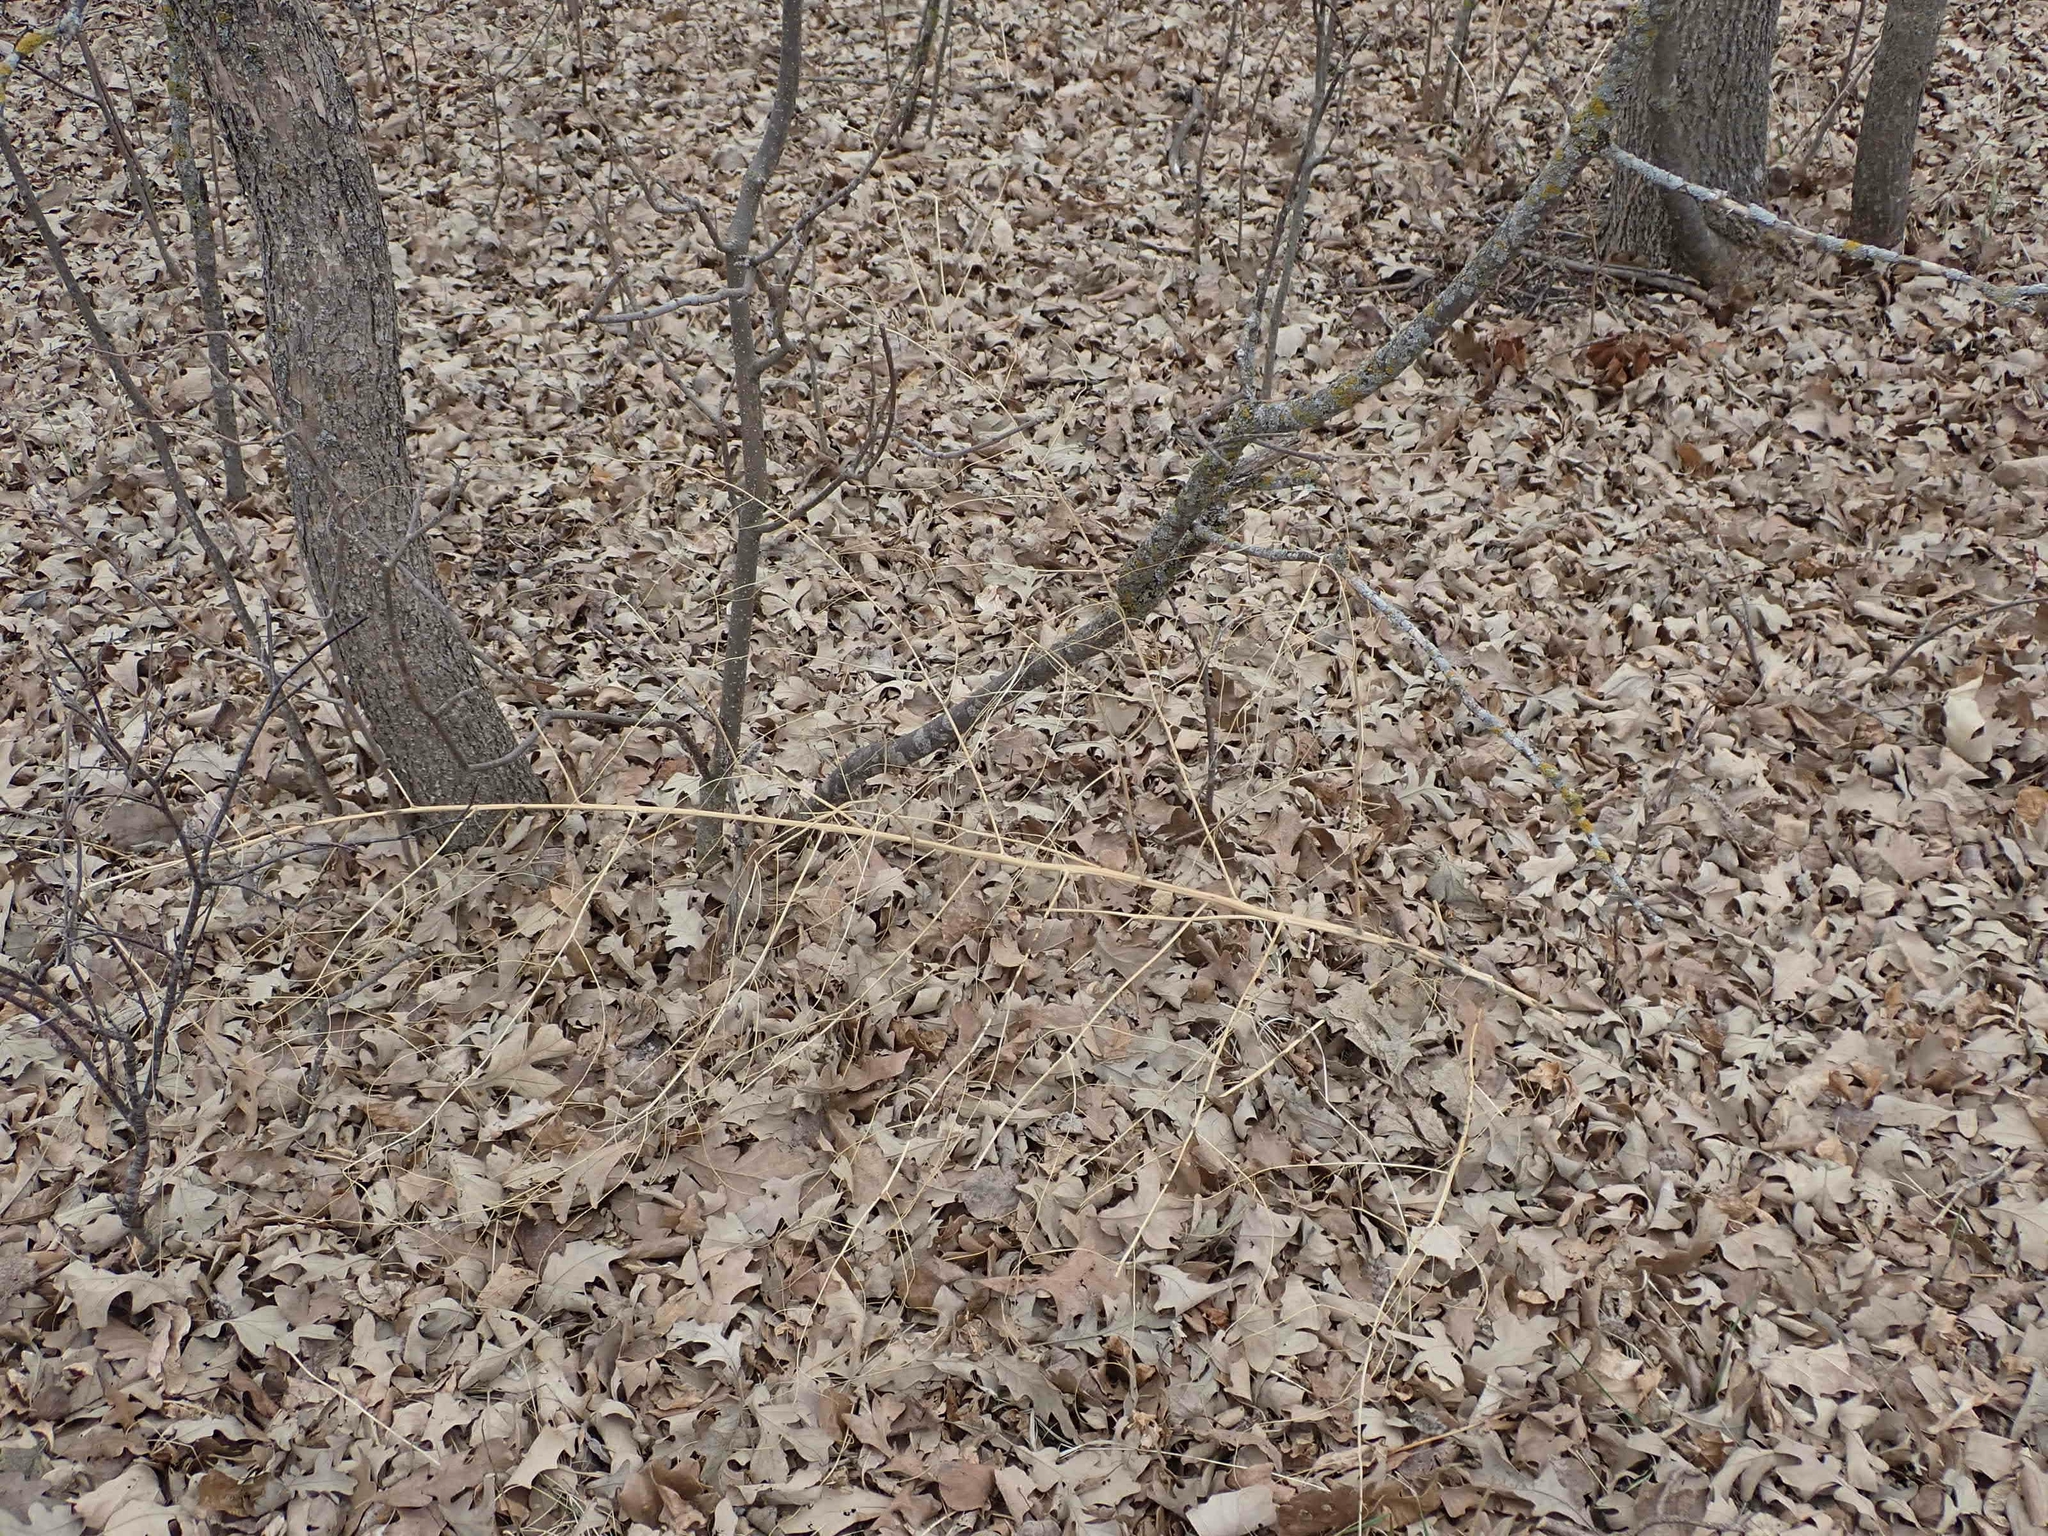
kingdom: Plantae
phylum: Tracheophyta
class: Liliopsida
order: Asparagales
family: Asparagaceae
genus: Asparagus
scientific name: Asparagus officinalis
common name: Garden asparagus
